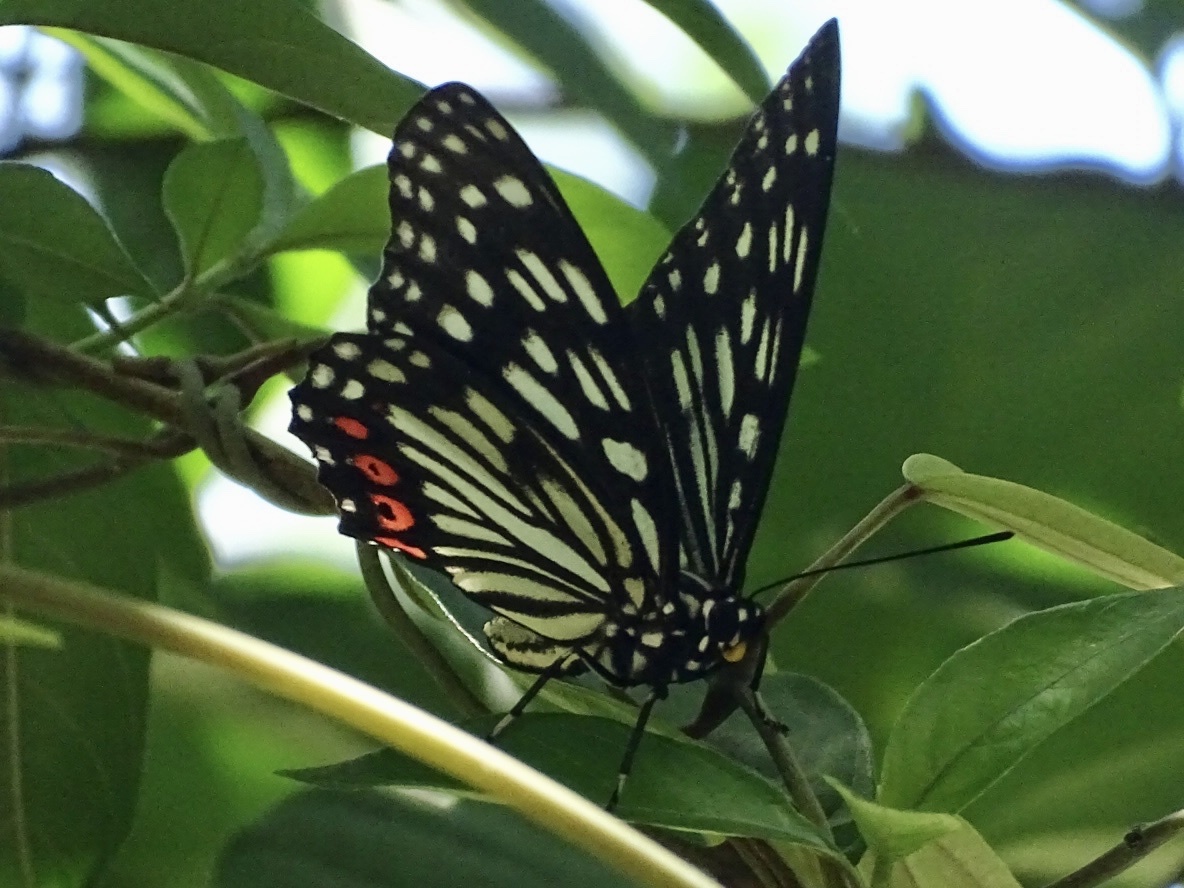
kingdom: Animalia
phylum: Arthropoda
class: Insecta
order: Lepidoptera
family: Nymphalidae
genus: Hestina
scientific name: Hestina assimilis
